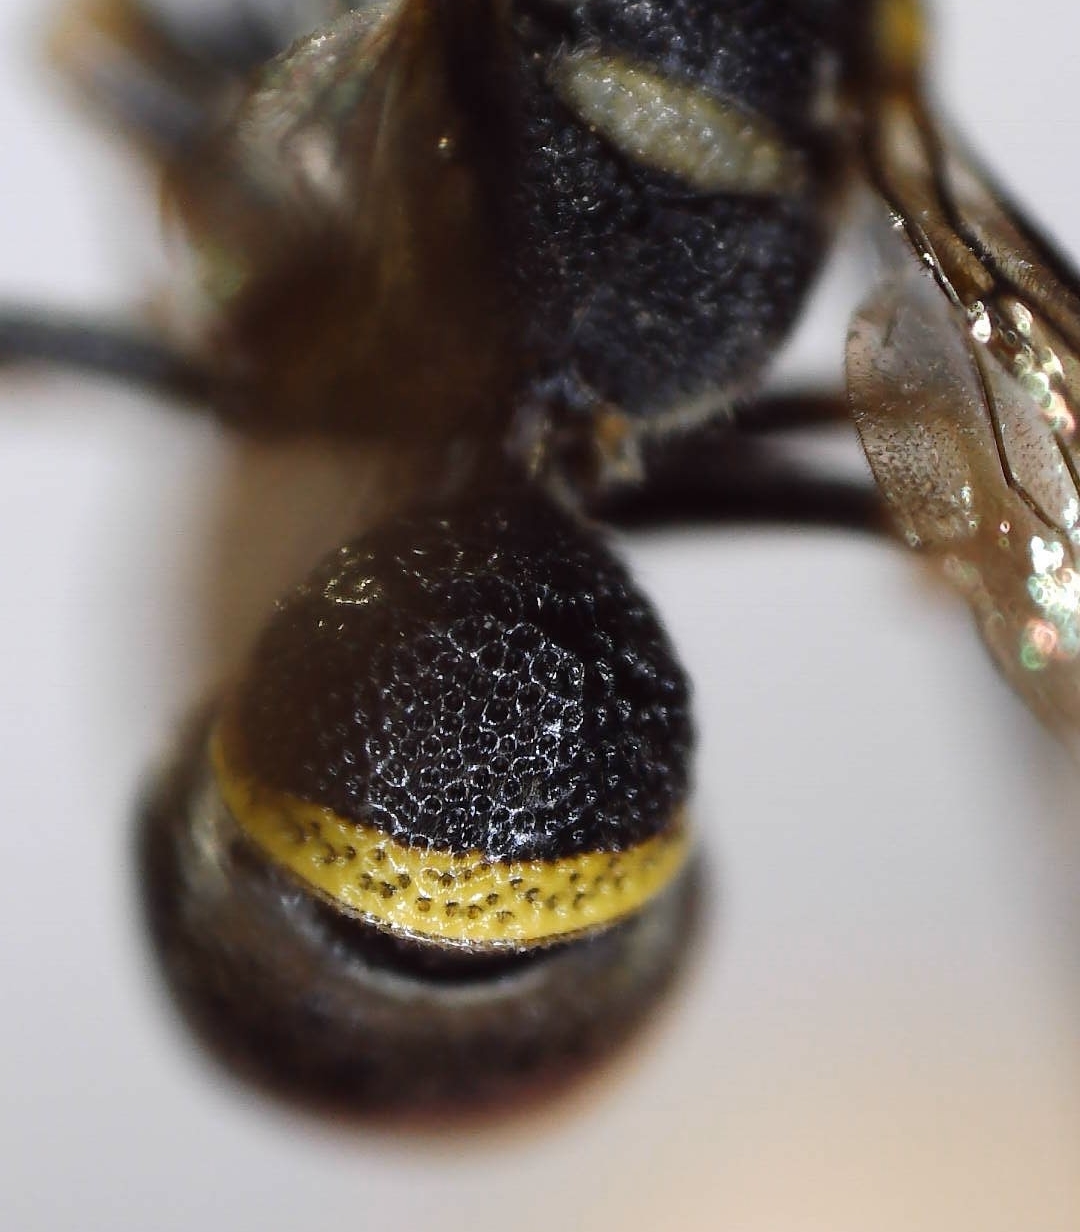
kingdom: Animalia
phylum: Arthropoda
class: Insecta
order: Hymenoptera
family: Eumenidae
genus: Parancistrocerus
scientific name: Parancistrocerus perennis
